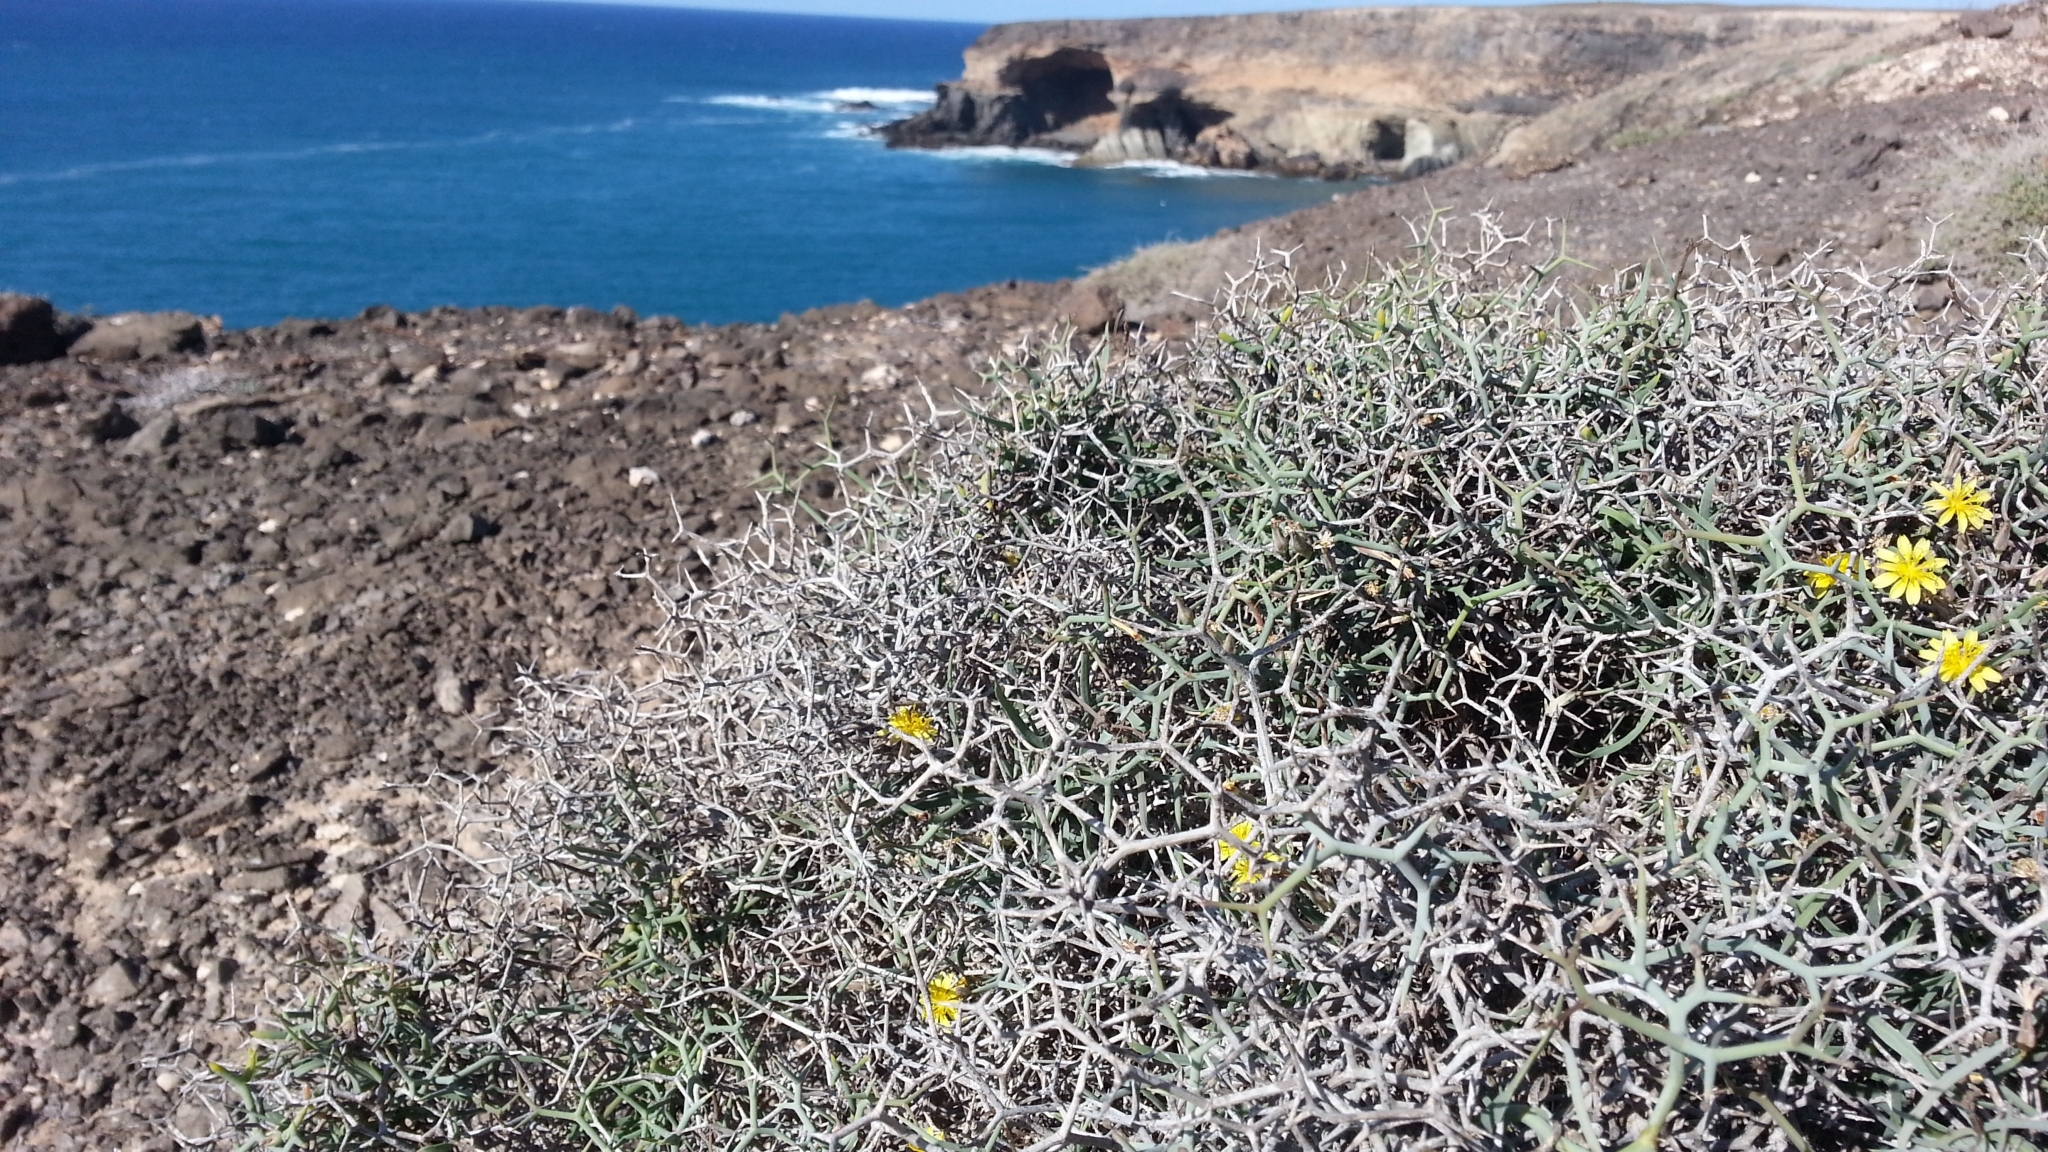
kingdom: Plantae
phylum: Tracheophyta
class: Magnoliopsida
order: Asterales
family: Asteraceae
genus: Launaea
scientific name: Launaea arborescens
